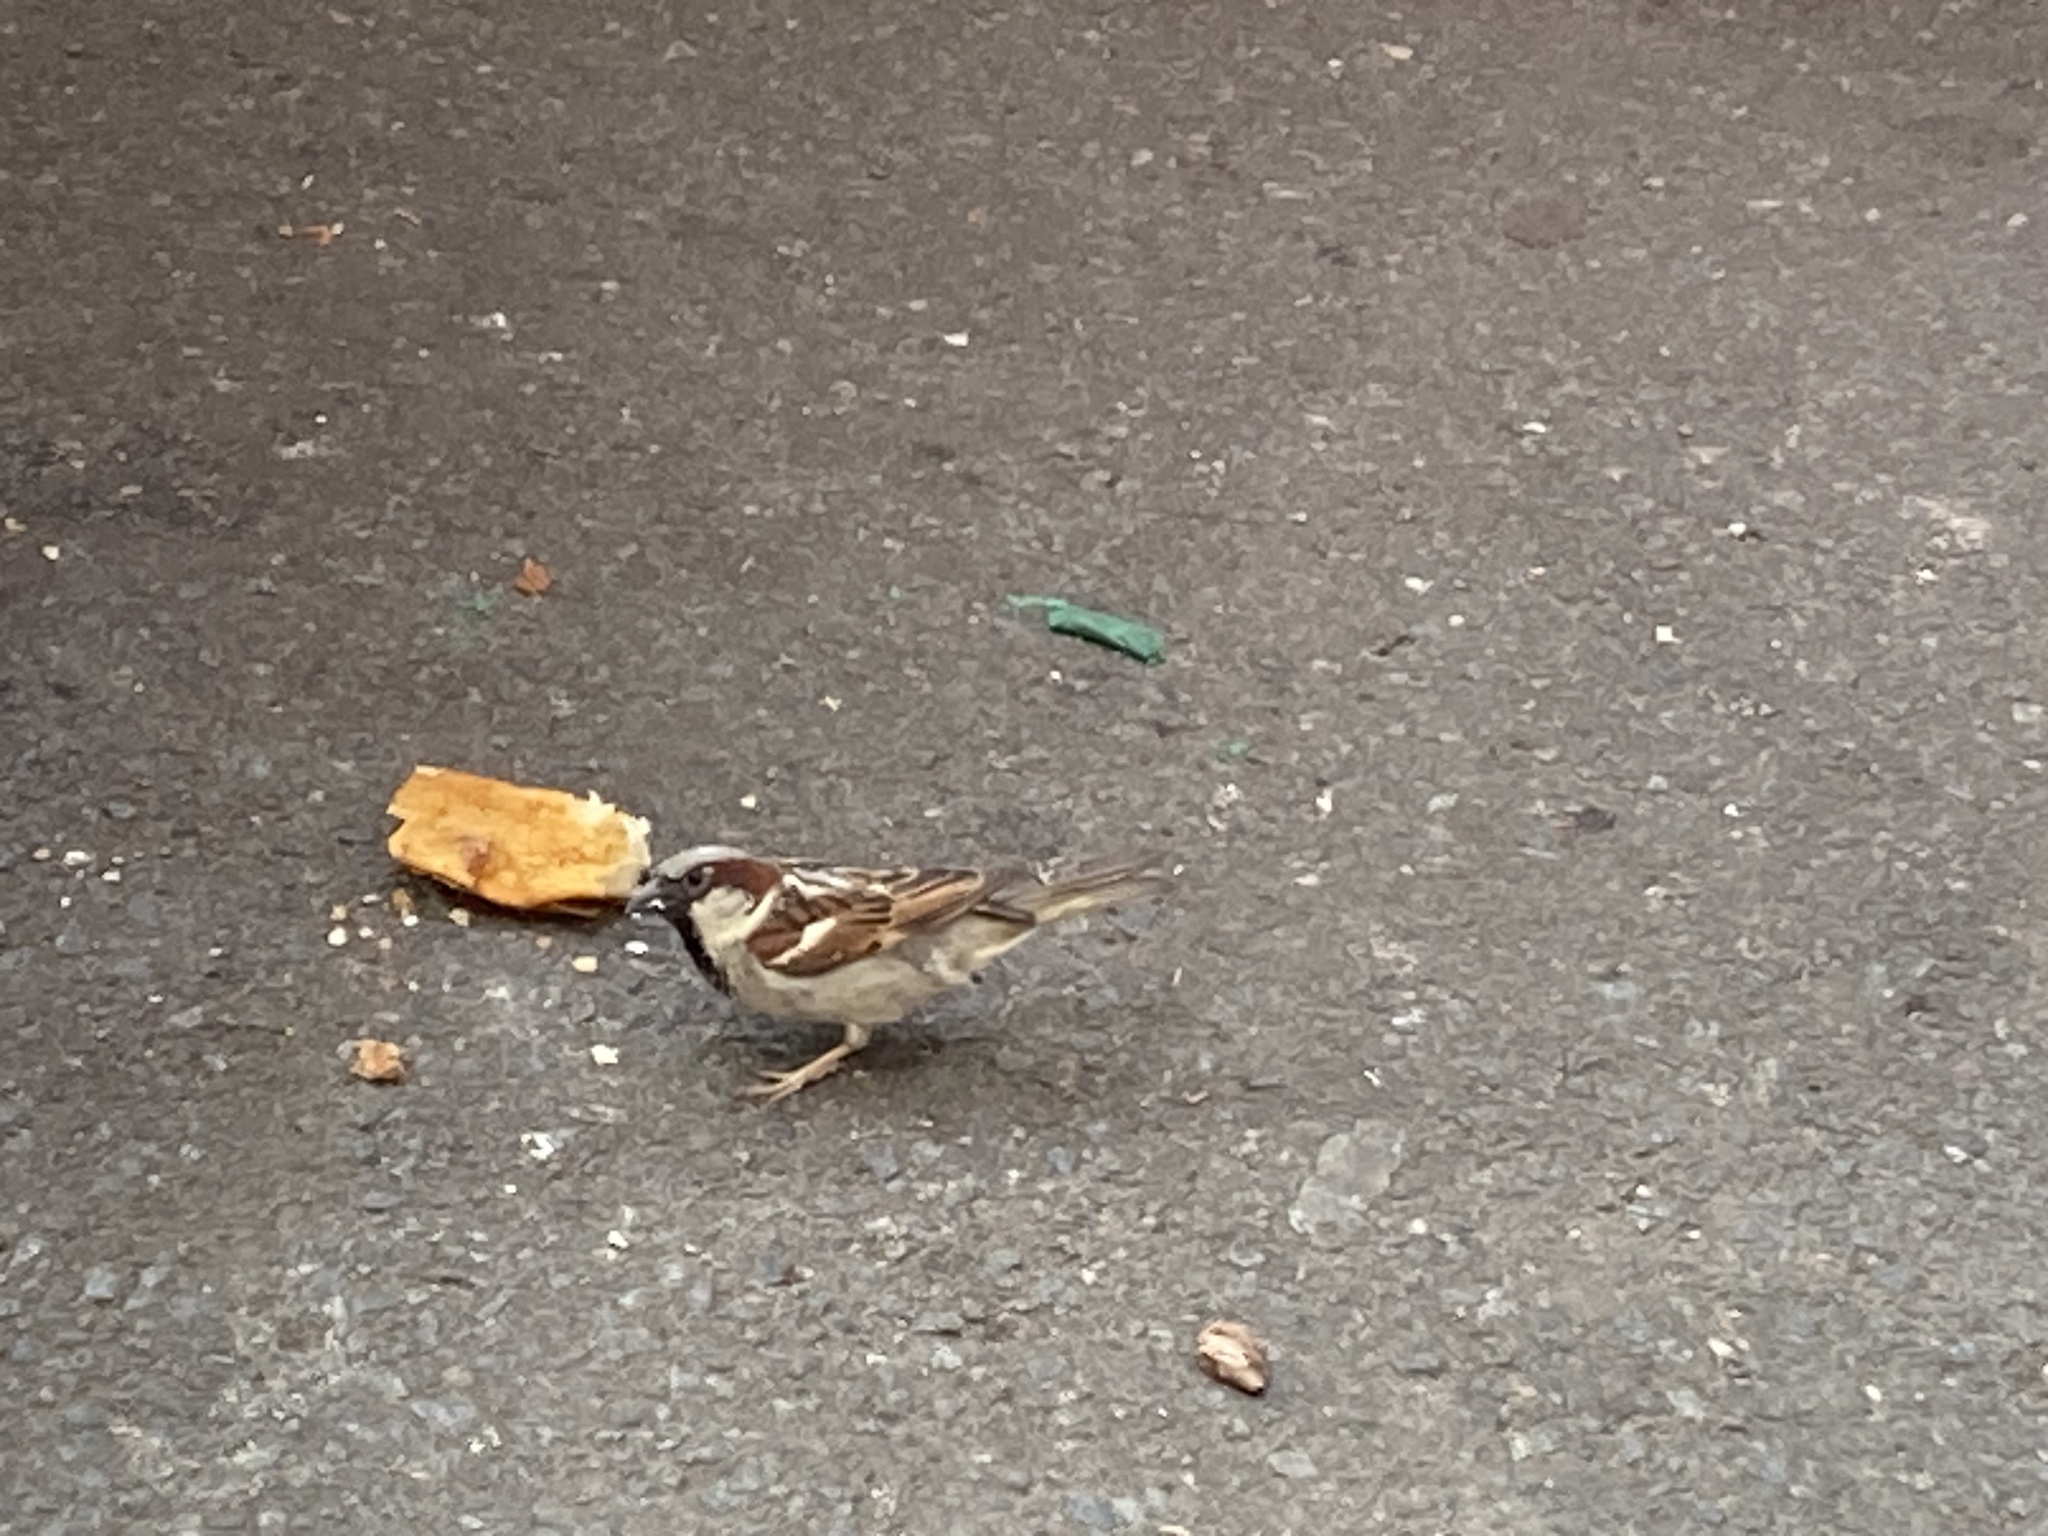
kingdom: Animalia
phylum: Chordata
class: Aves
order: Passeriformes
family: Passeridae
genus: Passer
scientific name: Passer domesticus
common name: House sparrow
